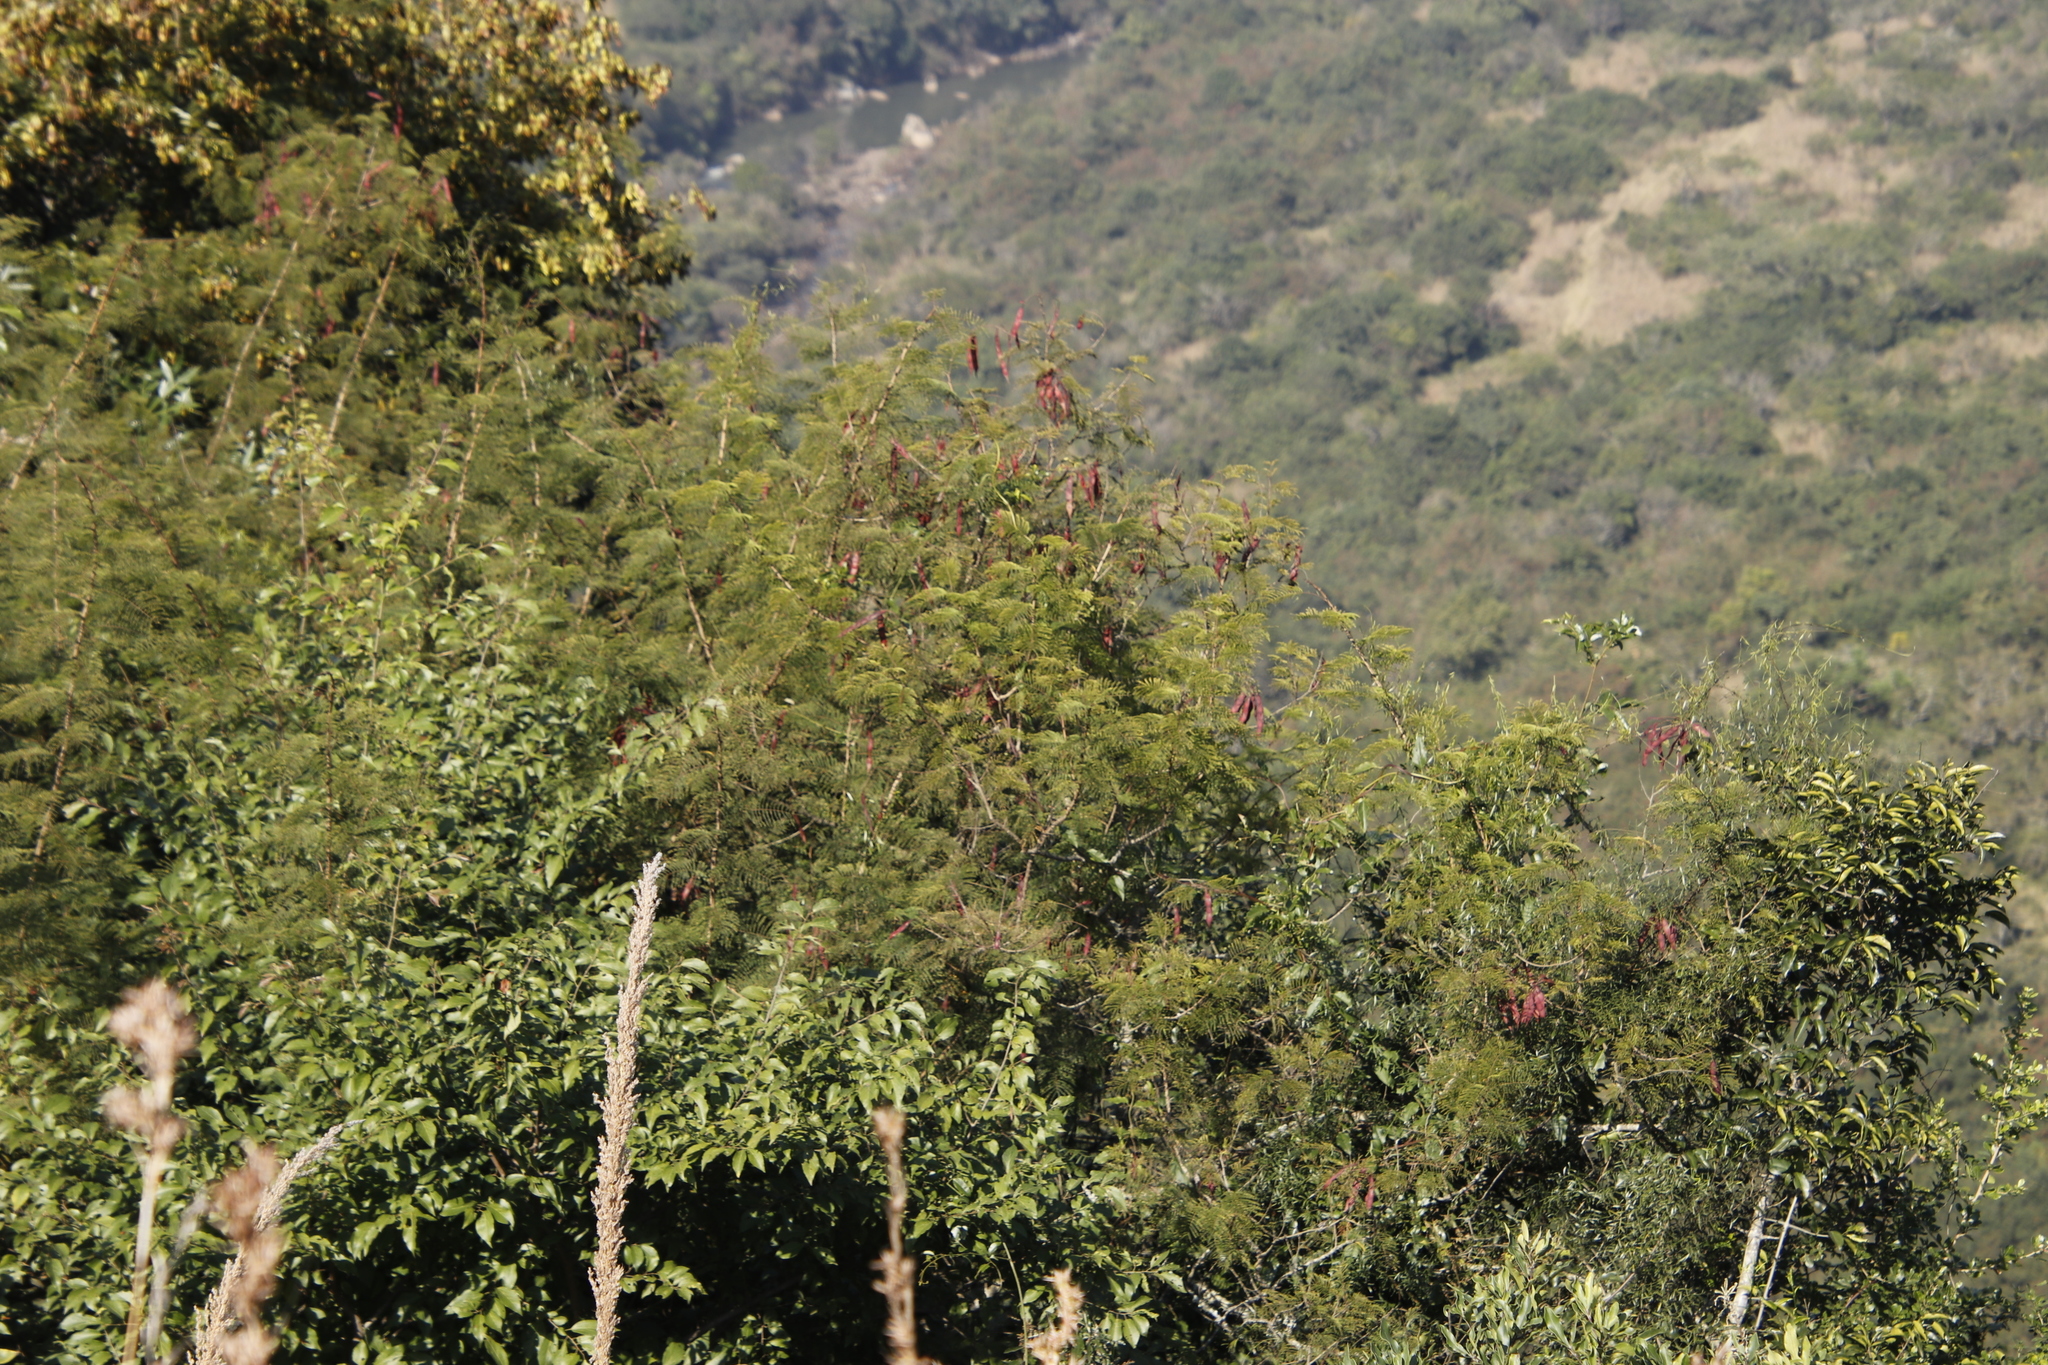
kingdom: Plantae
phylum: Tracheophyta
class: Magnoliopsida
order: Fabales
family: Fabaceae
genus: Leucaena
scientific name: Leucaena leucocephala
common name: White leadtree
